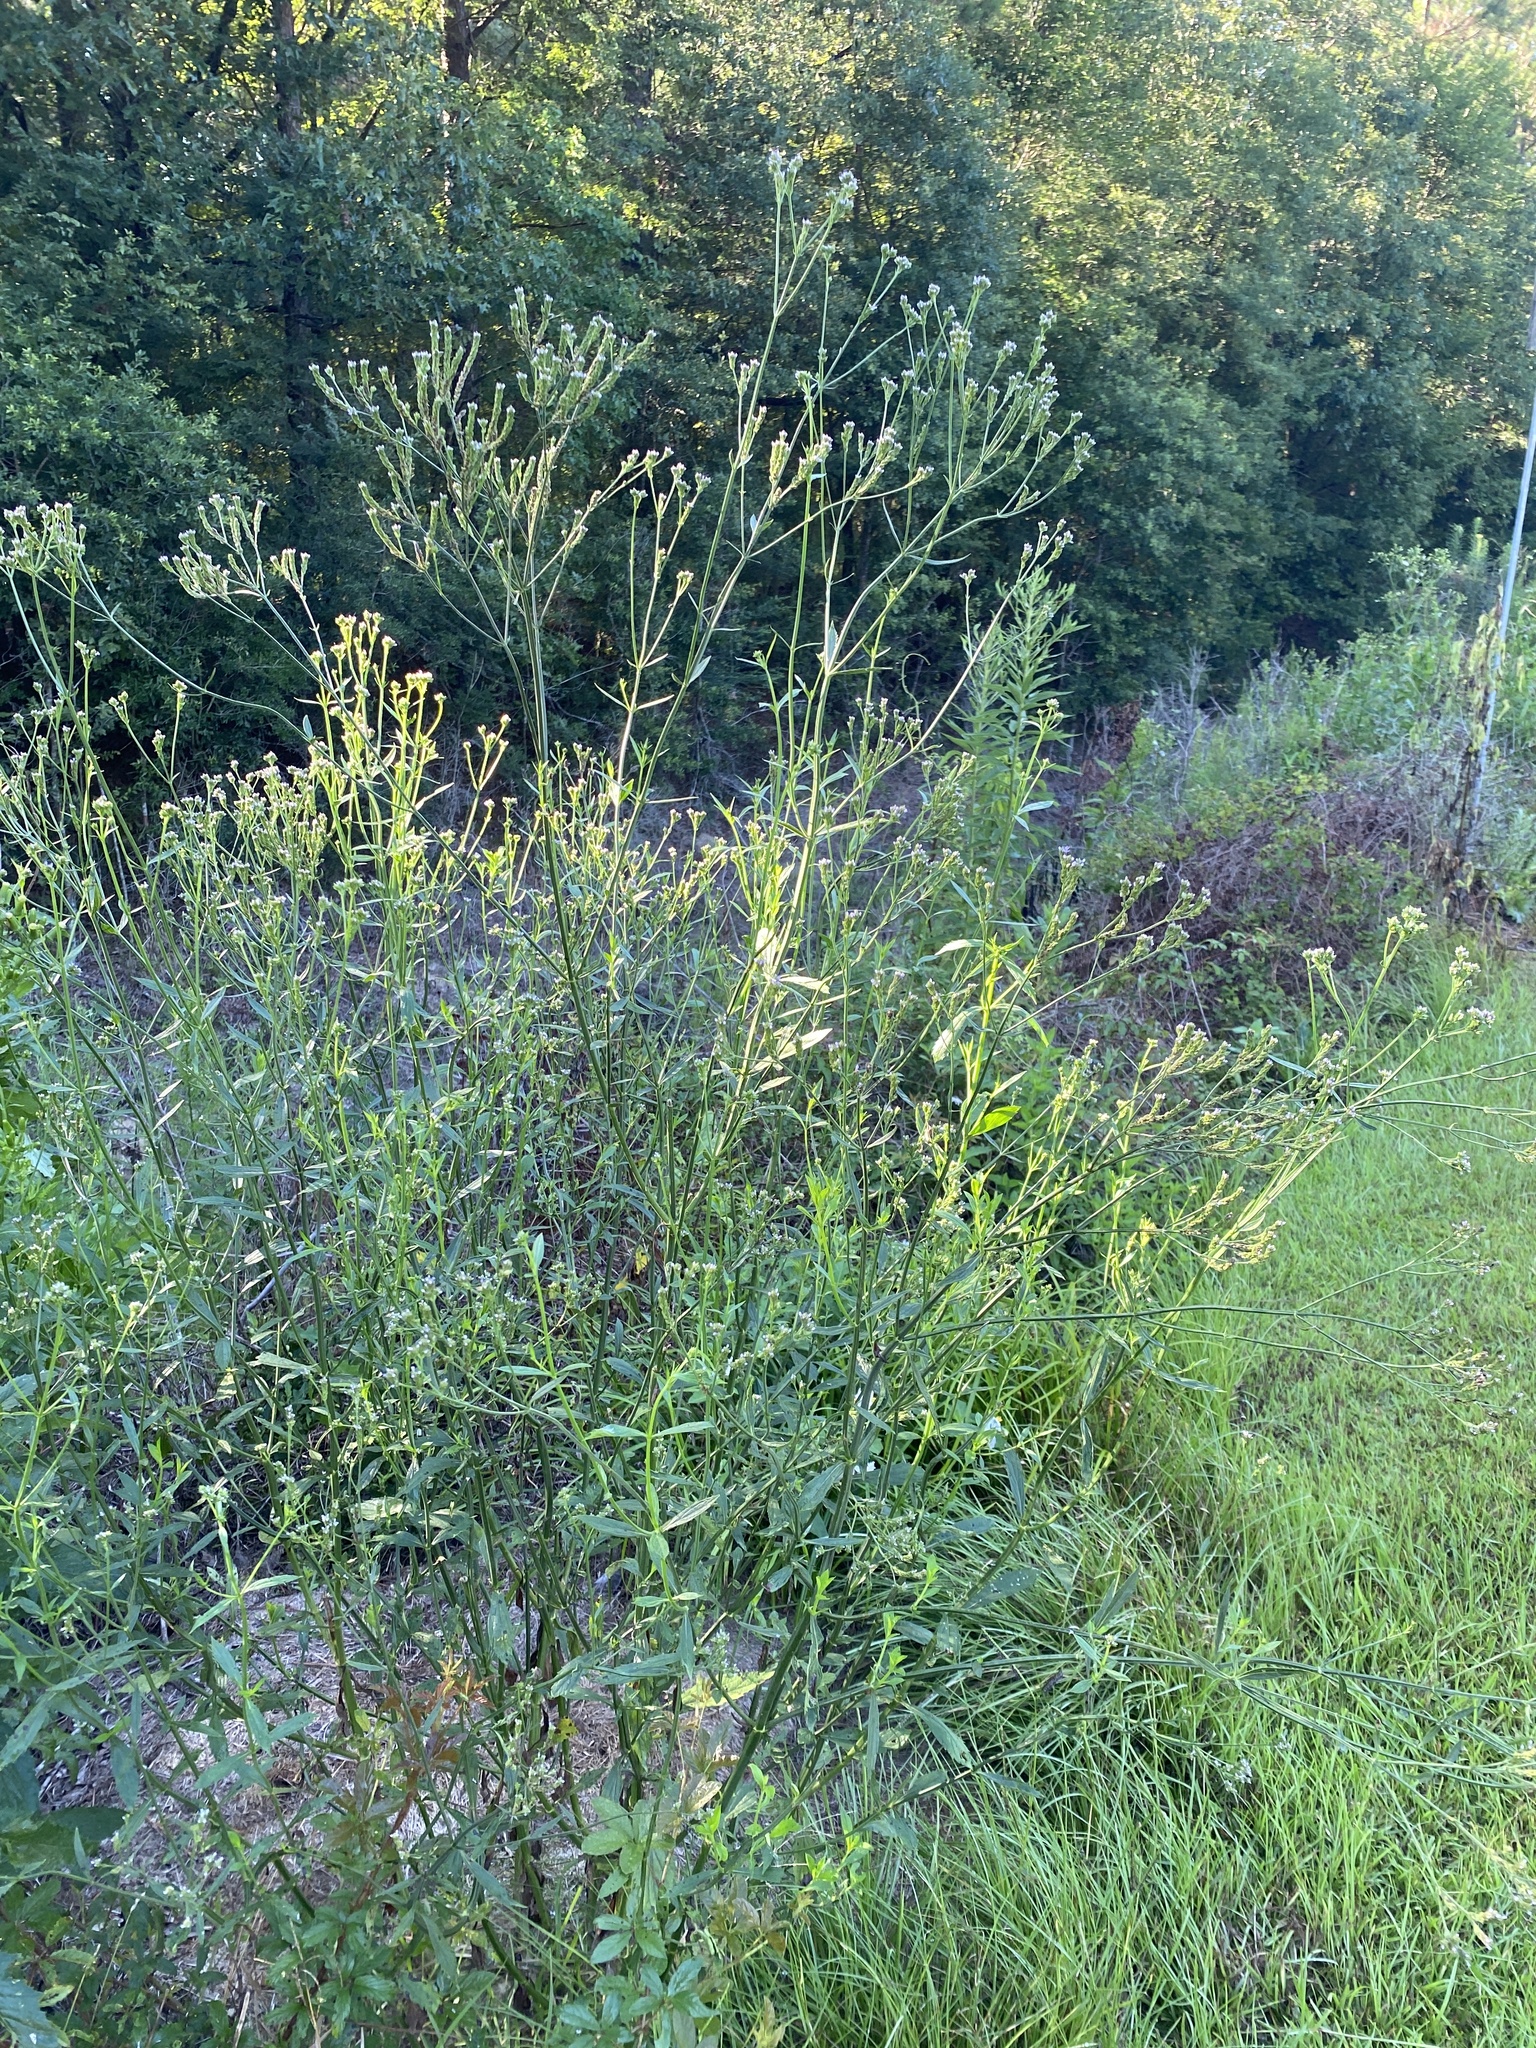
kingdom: Plantae
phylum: Tracheophyta
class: Magnoliopsida
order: Lamiales
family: Verbenaceae
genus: Verbena
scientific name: Verbena brasiliensis
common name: Brazilian vervain
